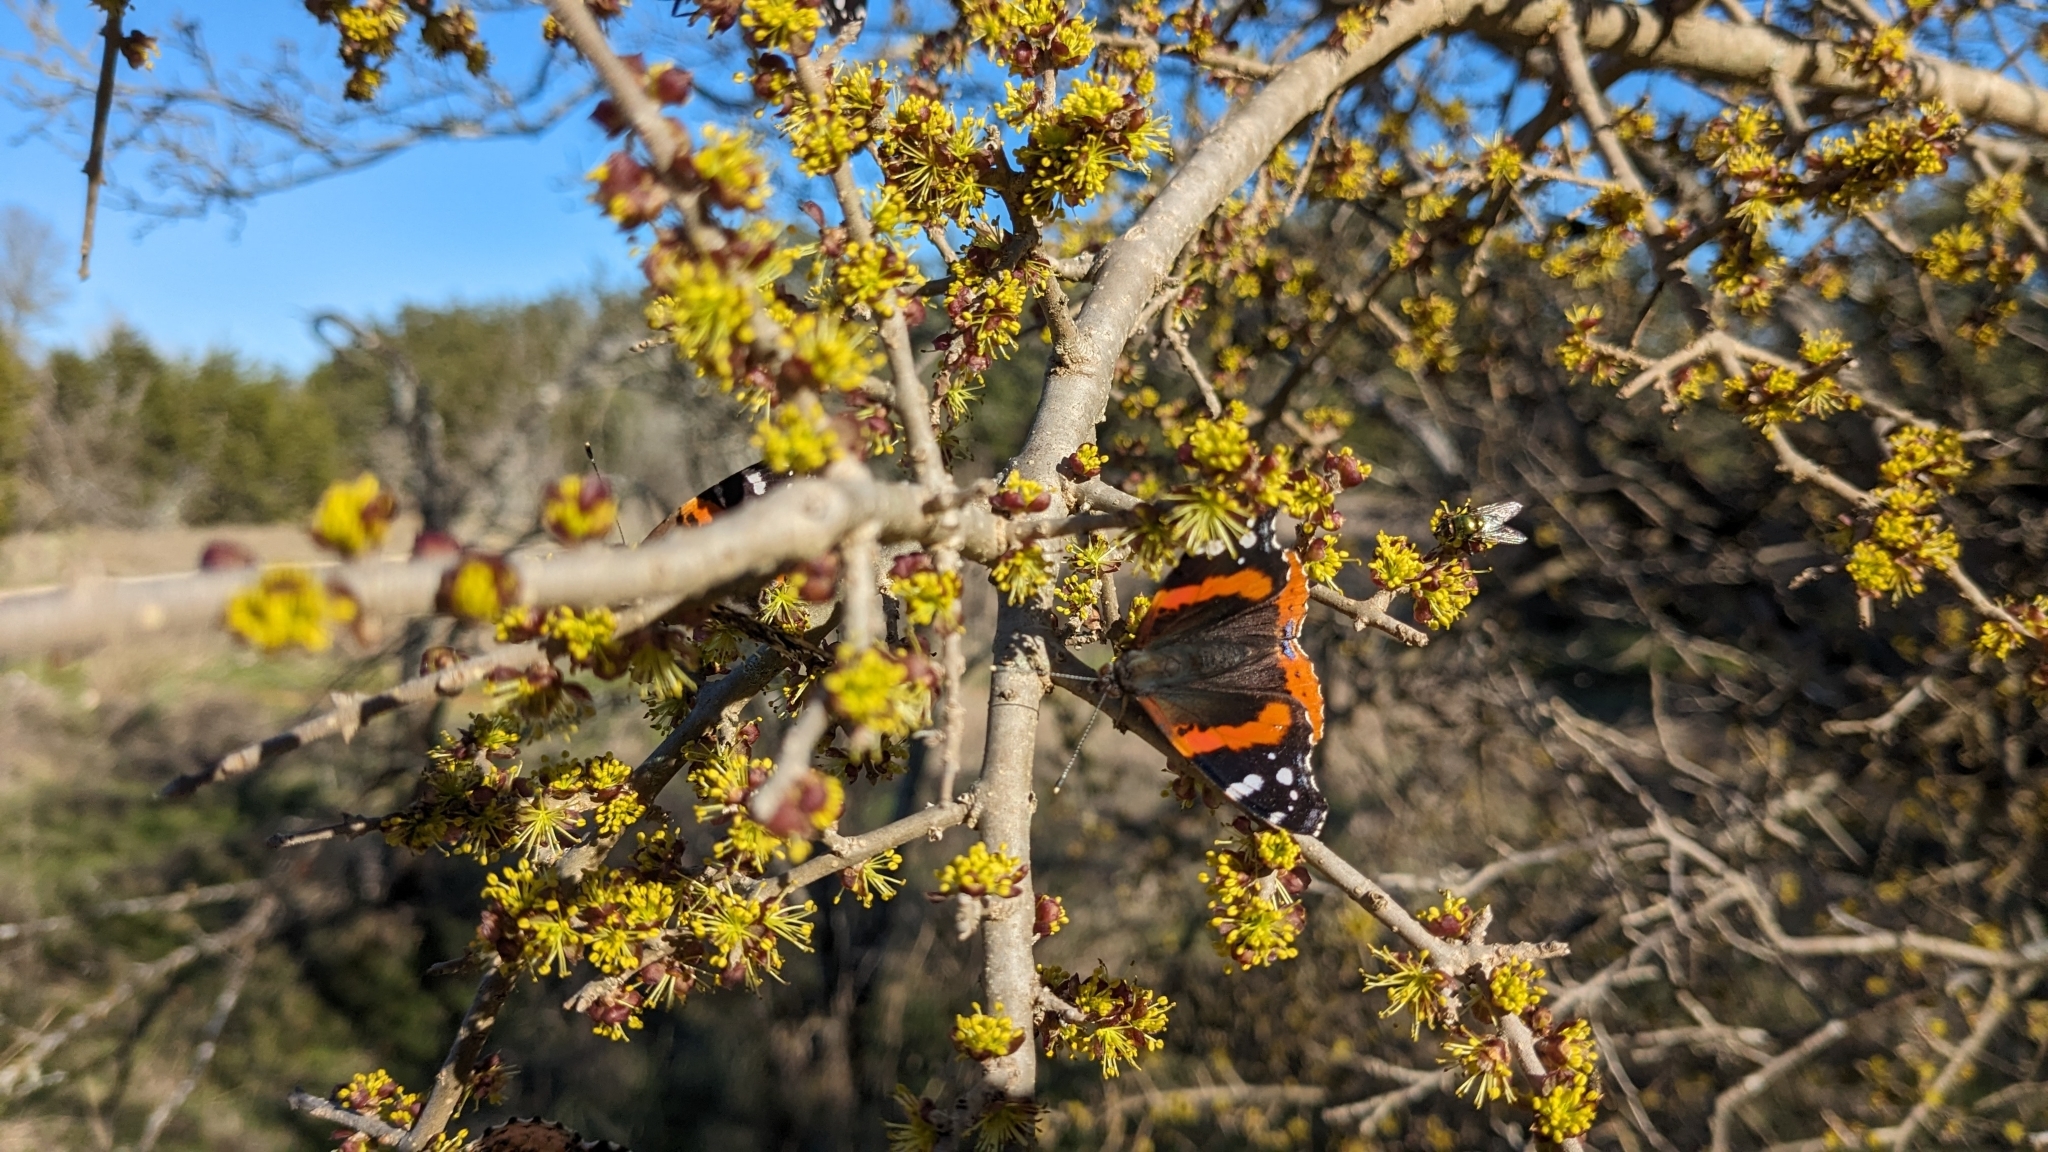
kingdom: Animalia
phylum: Arthropoda
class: Insecta
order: Lepidoptera
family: Nymphalidae
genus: Vanessa
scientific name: Vanessa atalanta
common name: Red admiral
